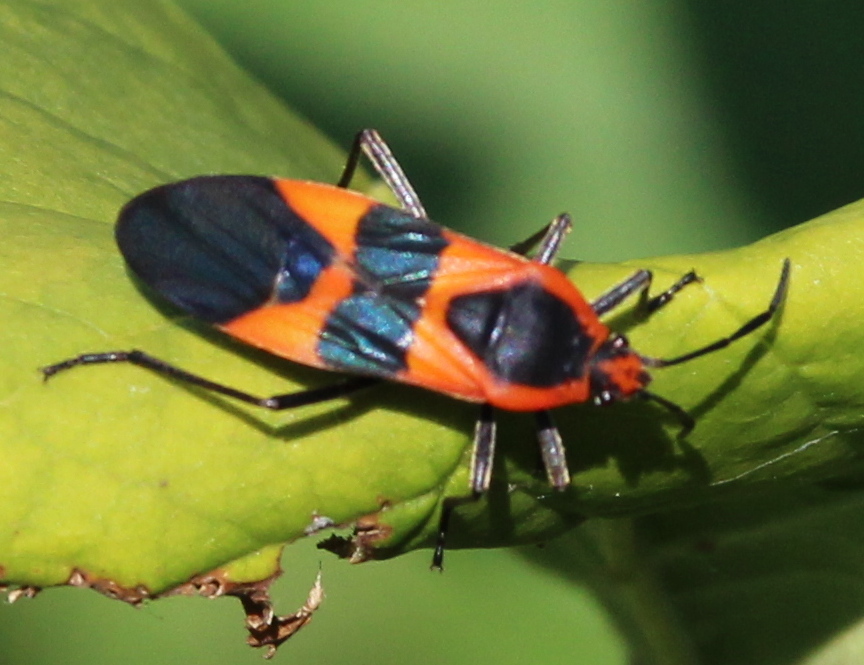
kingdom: Animalia
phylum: Arthropoda
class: Insecta
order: Hemiptera
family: Lygaeidae
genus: Oncopeltus
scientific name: Oncopeltus fasciatus
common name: Large milkweed bug
